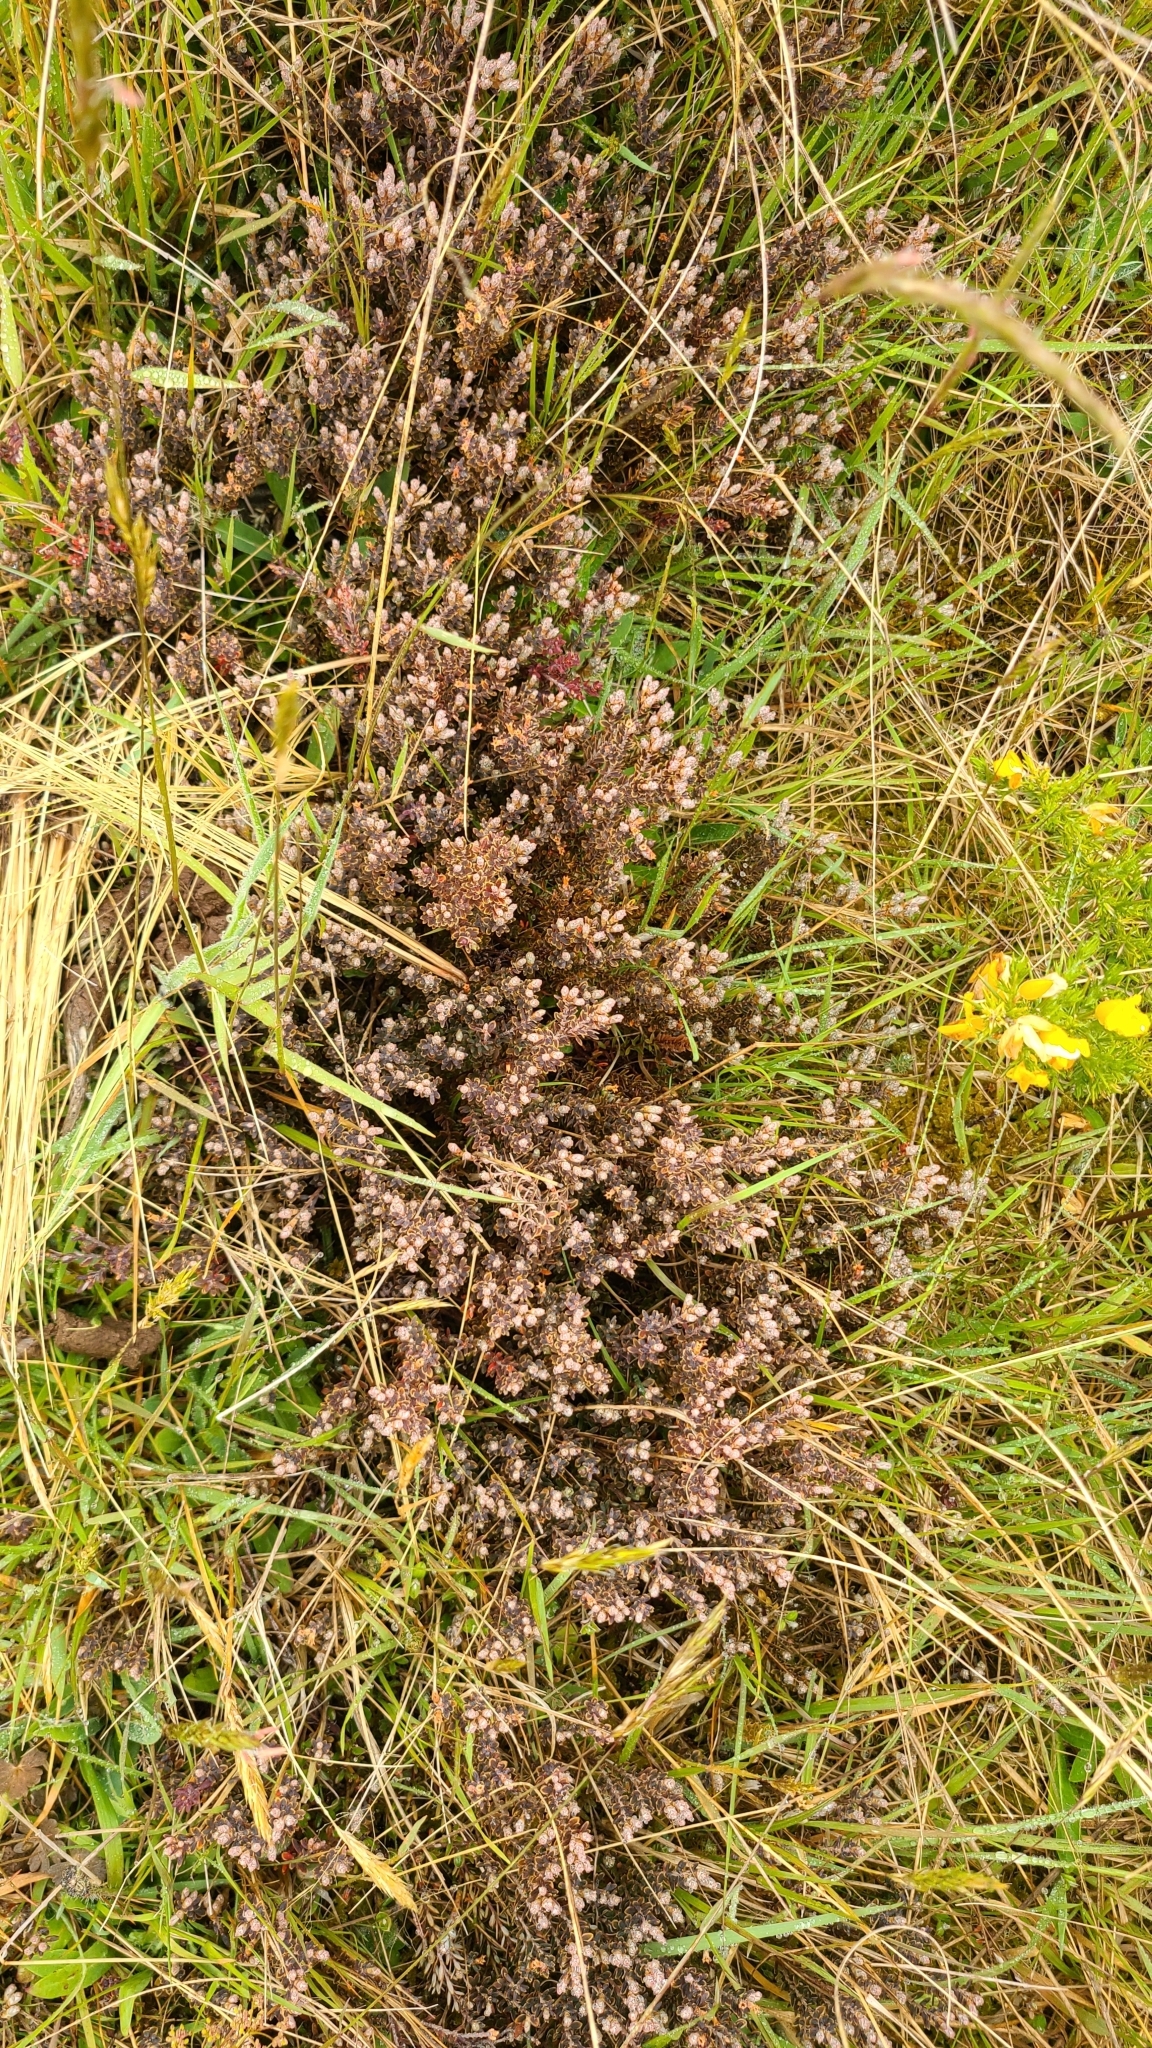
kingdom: Plantae
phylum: Tracheophyta
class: Magnoliopsida
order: Ericales
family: Ericaceae
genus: Acrothamnus
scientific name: Acrothamnus colensoi
